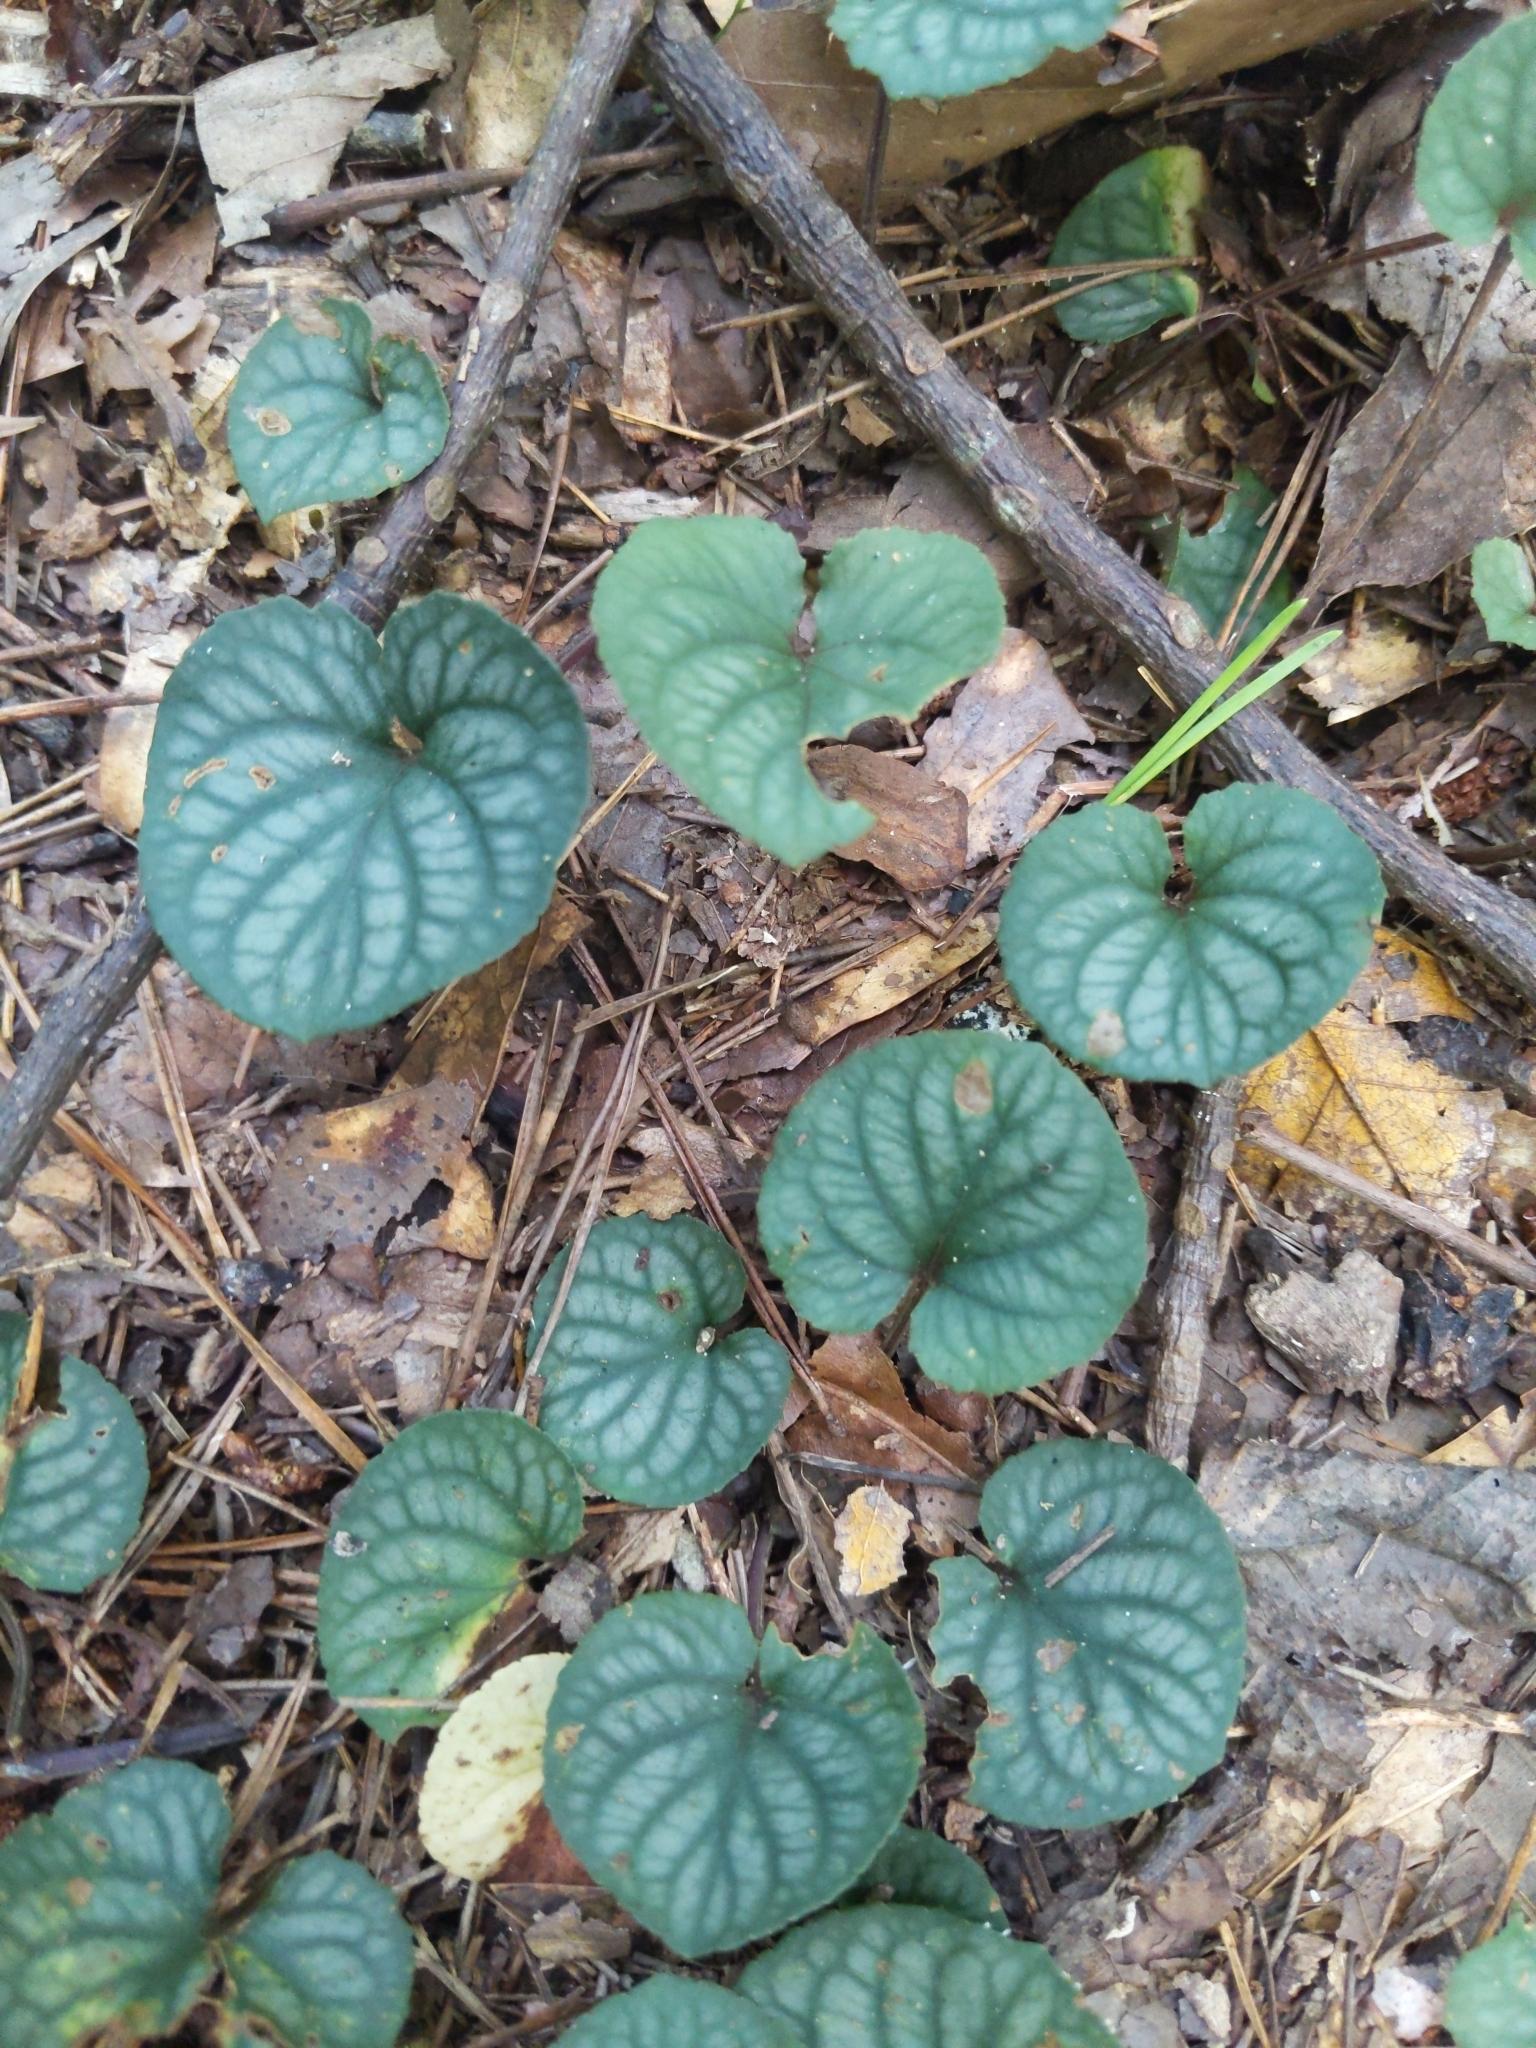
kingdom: Plantae
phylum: Tracheophyta
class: Magnoliopsida
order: Malpighiales
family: Violaceae
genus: Viola
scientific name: Viola walteri
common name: Prostrate southern violet
